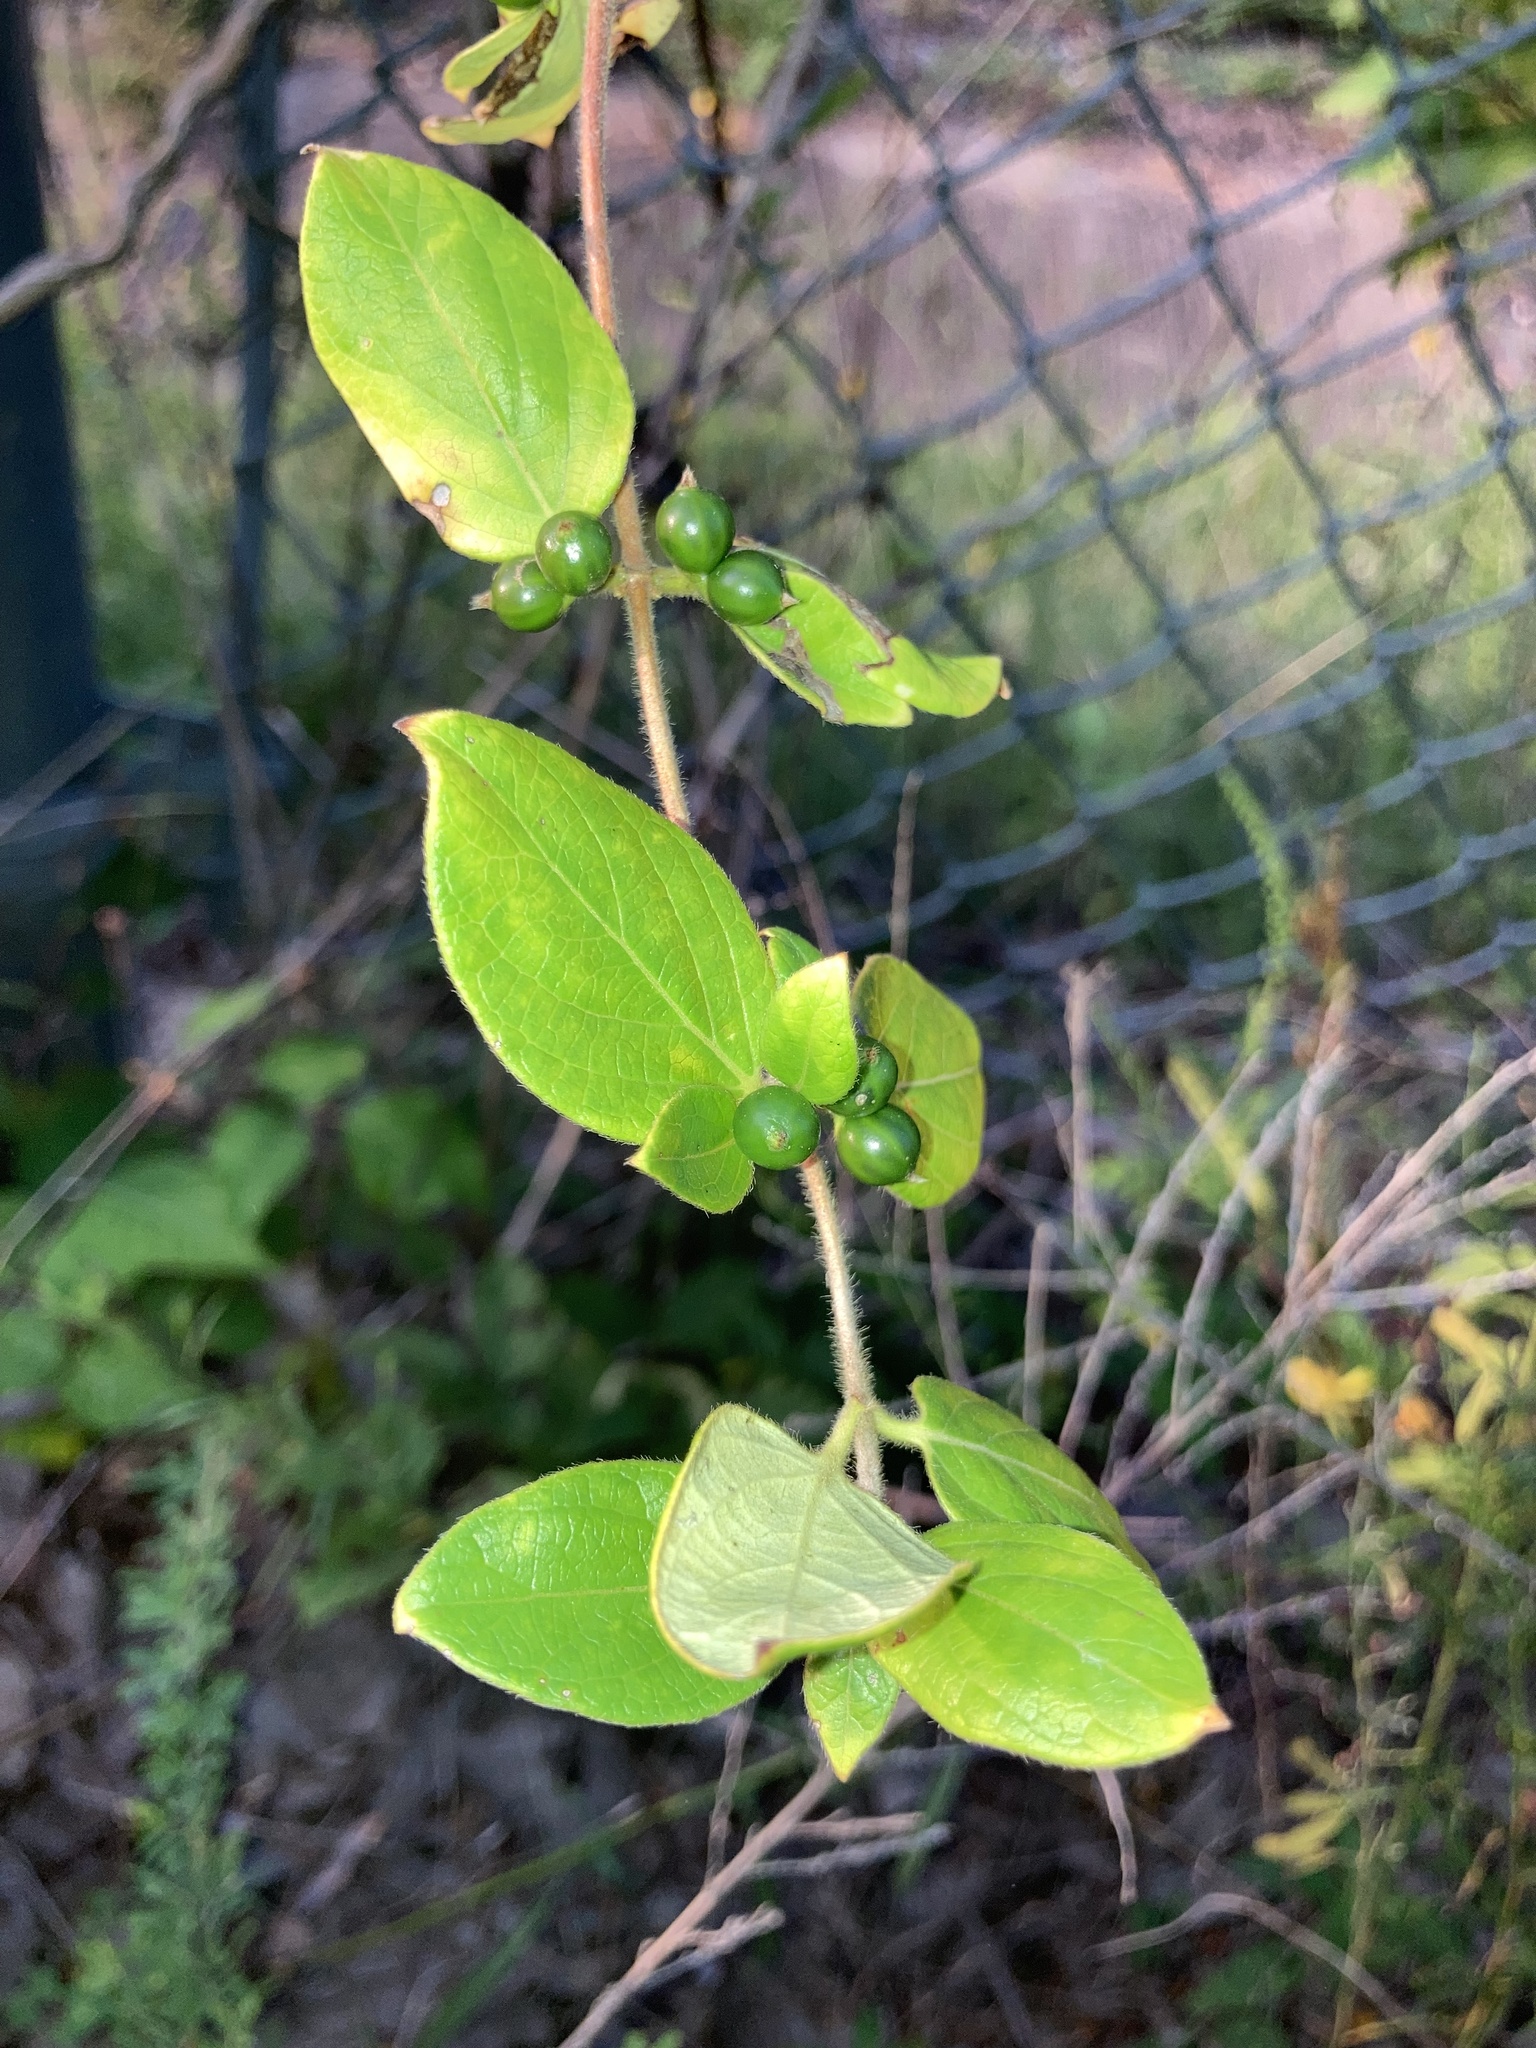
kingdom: Plantae
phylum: Tracheophyta
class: Magnoliopsida
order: Dipsacales
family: Caprifoliaceae
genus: Lonicera
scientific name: Lonicera japonica
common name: Japanese honeysuckle
